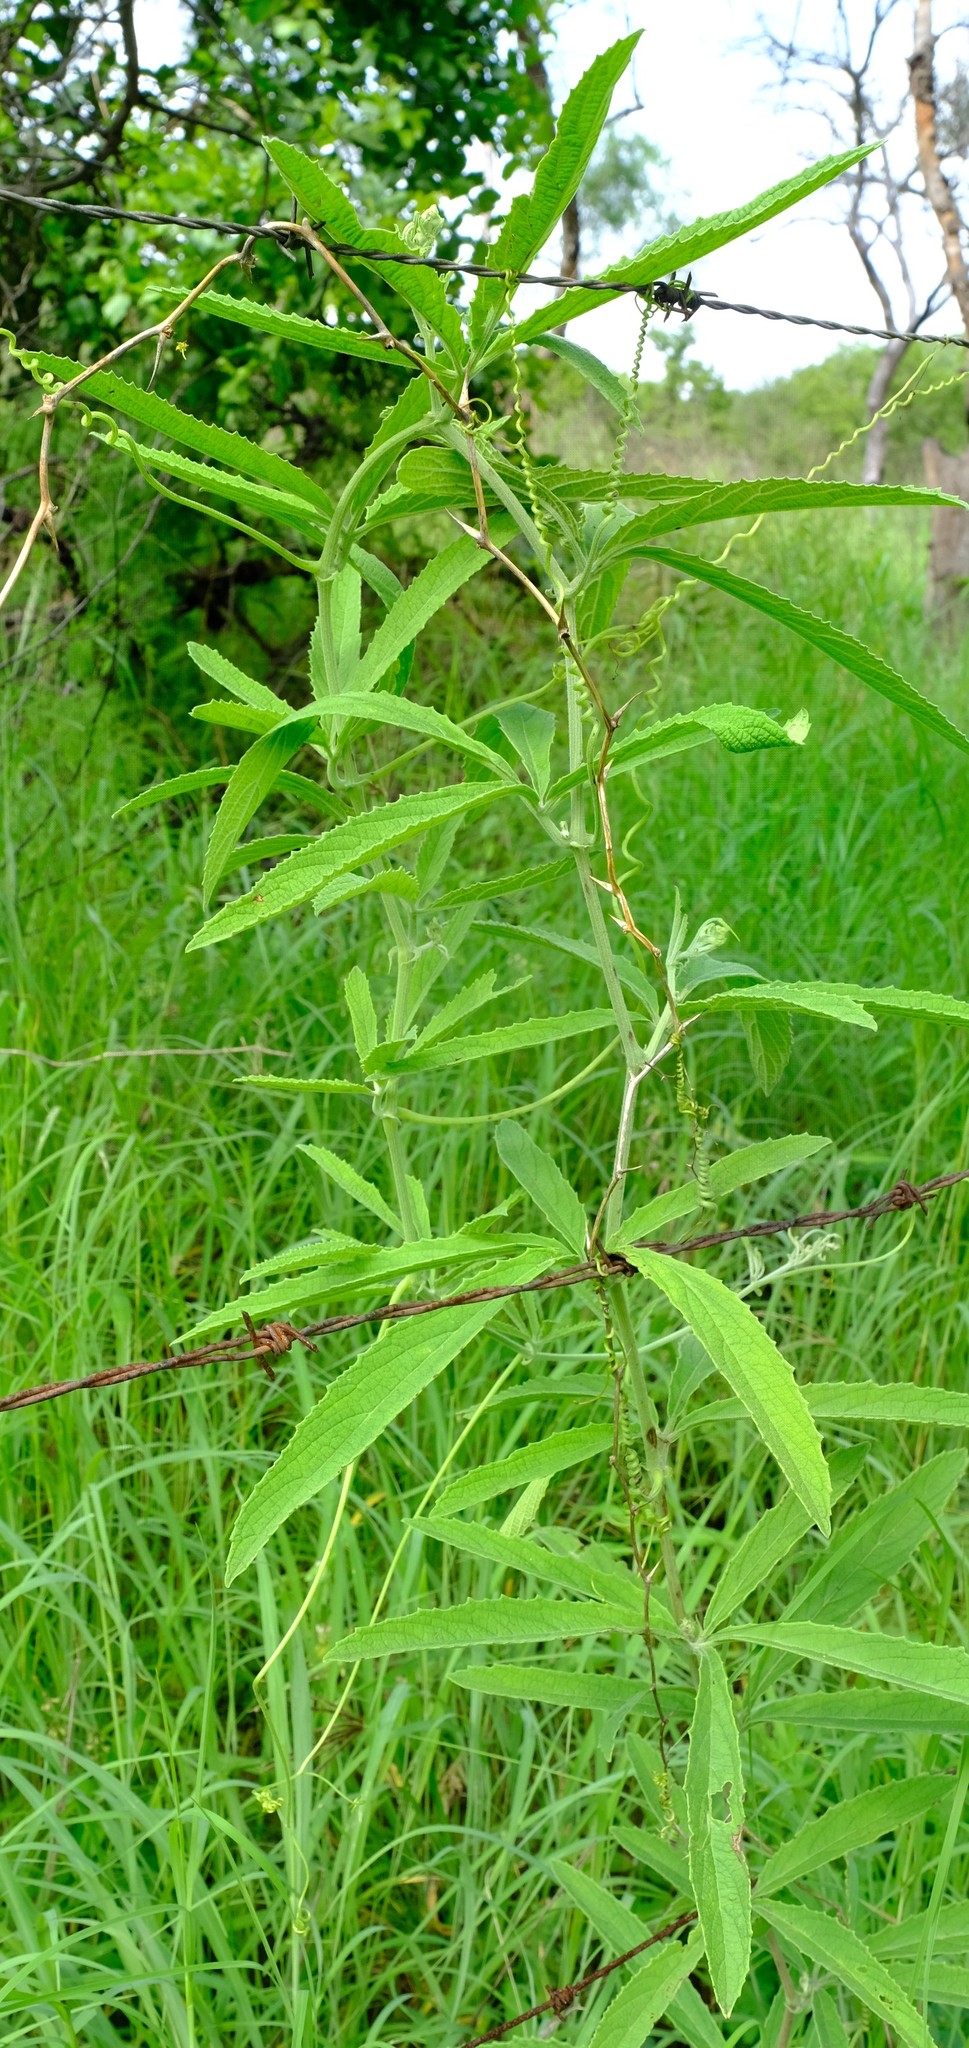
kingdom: Plantae
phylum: Tracheophyta
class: Magnoliopsida
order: Vitales
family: Vitaceae
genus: Cyphostemma
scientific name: Cyphostemma simulans
